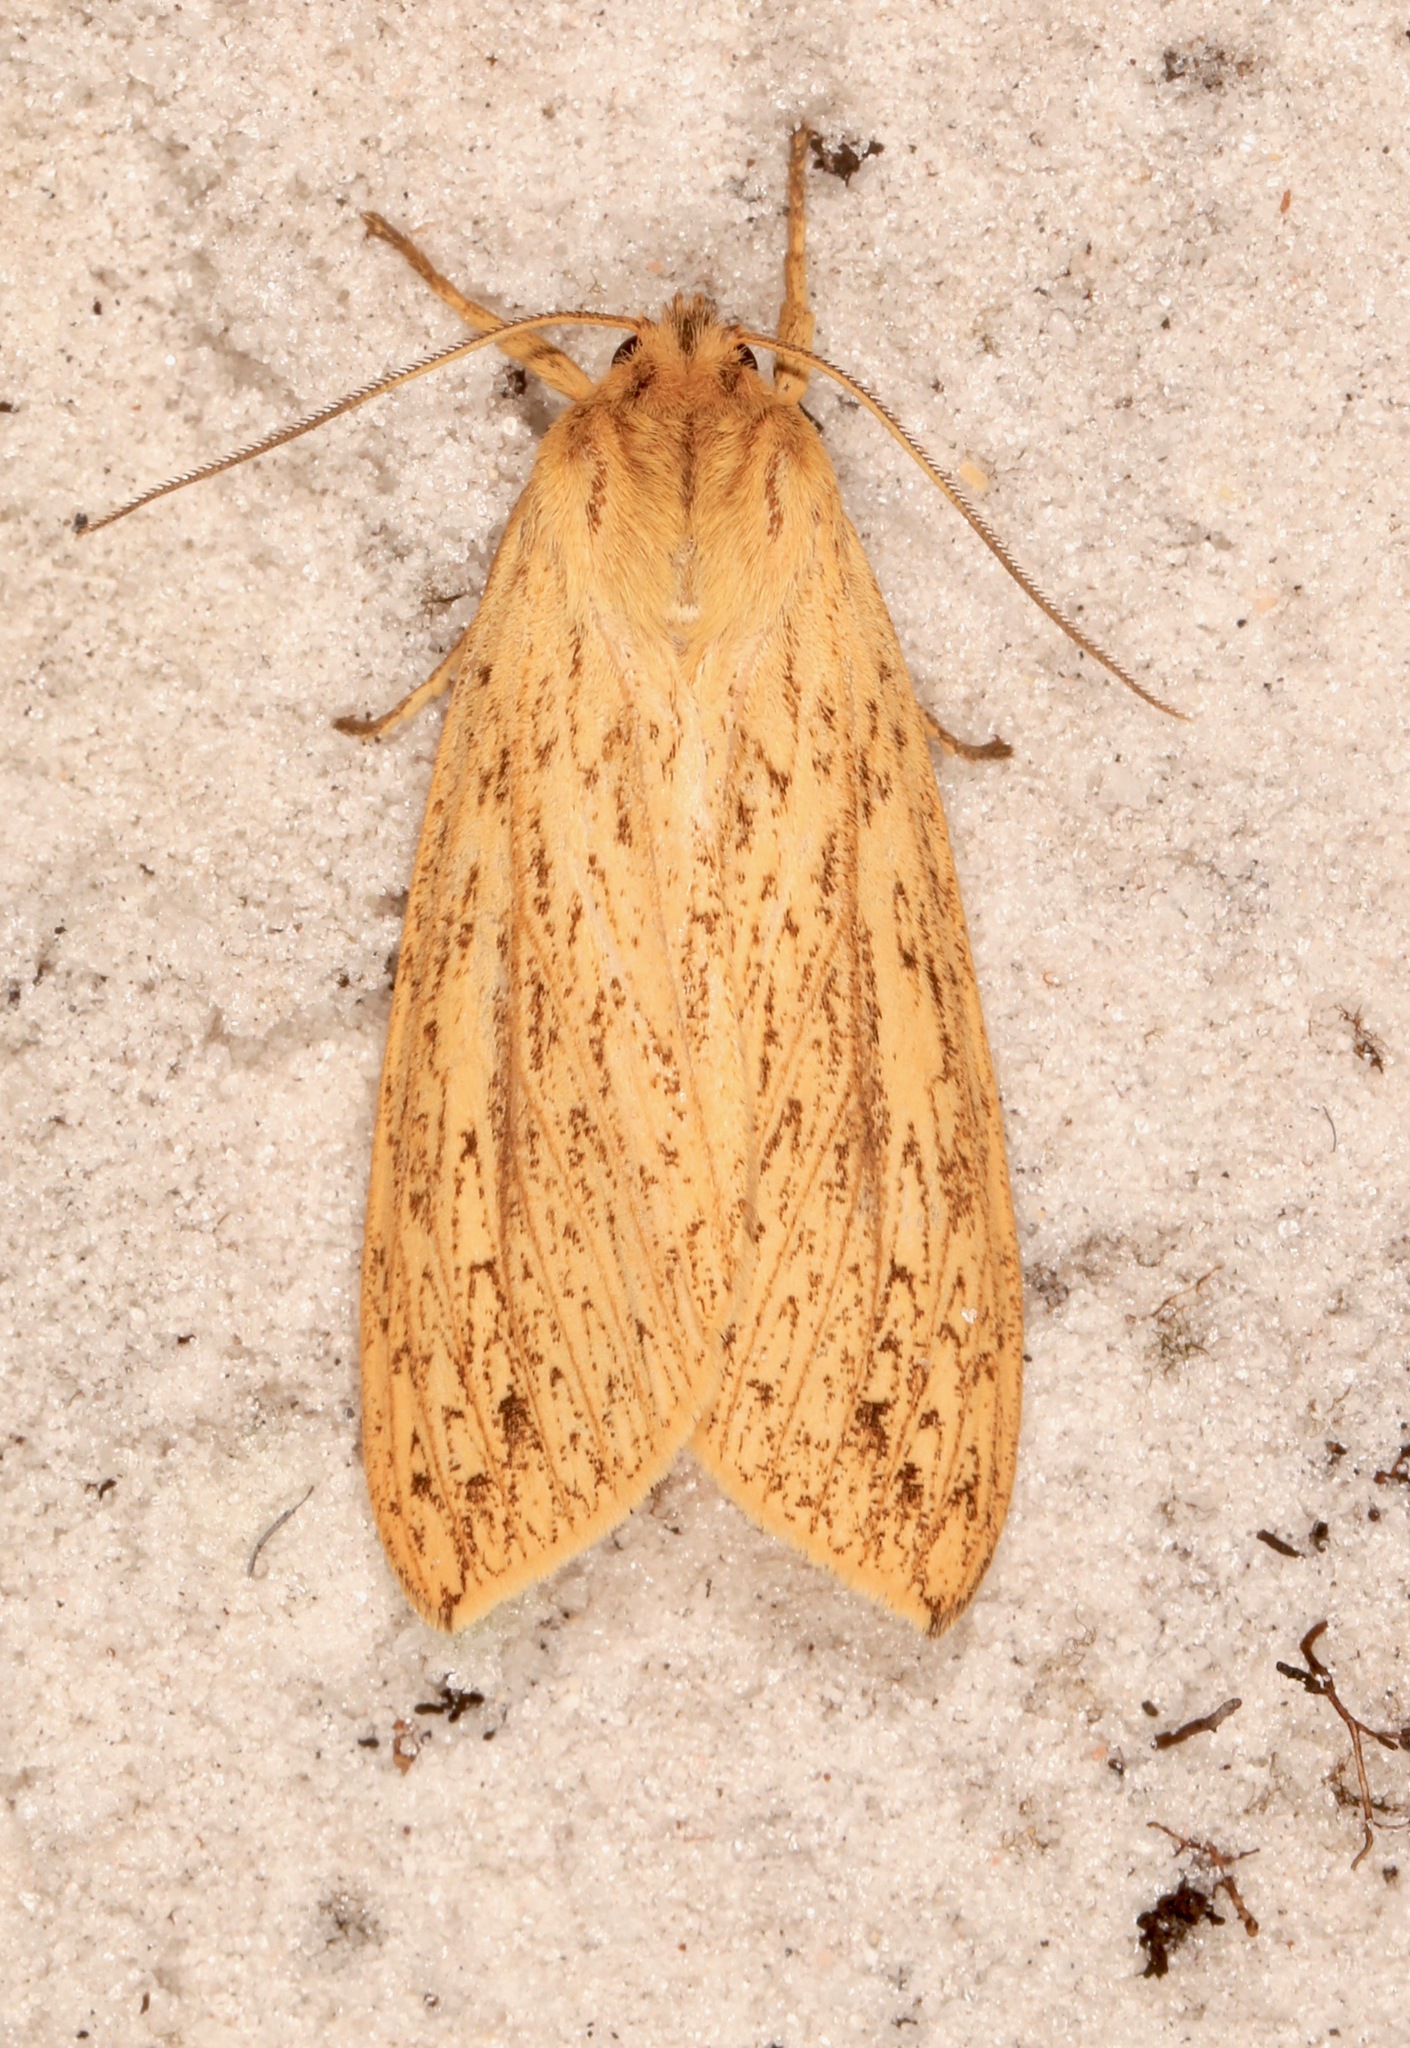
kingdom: Animalia
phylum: Arthropoda
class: Insecta
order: Lepidoptera
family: Erebidae
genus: Leucanopsis
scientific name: Leucanopsis longa
